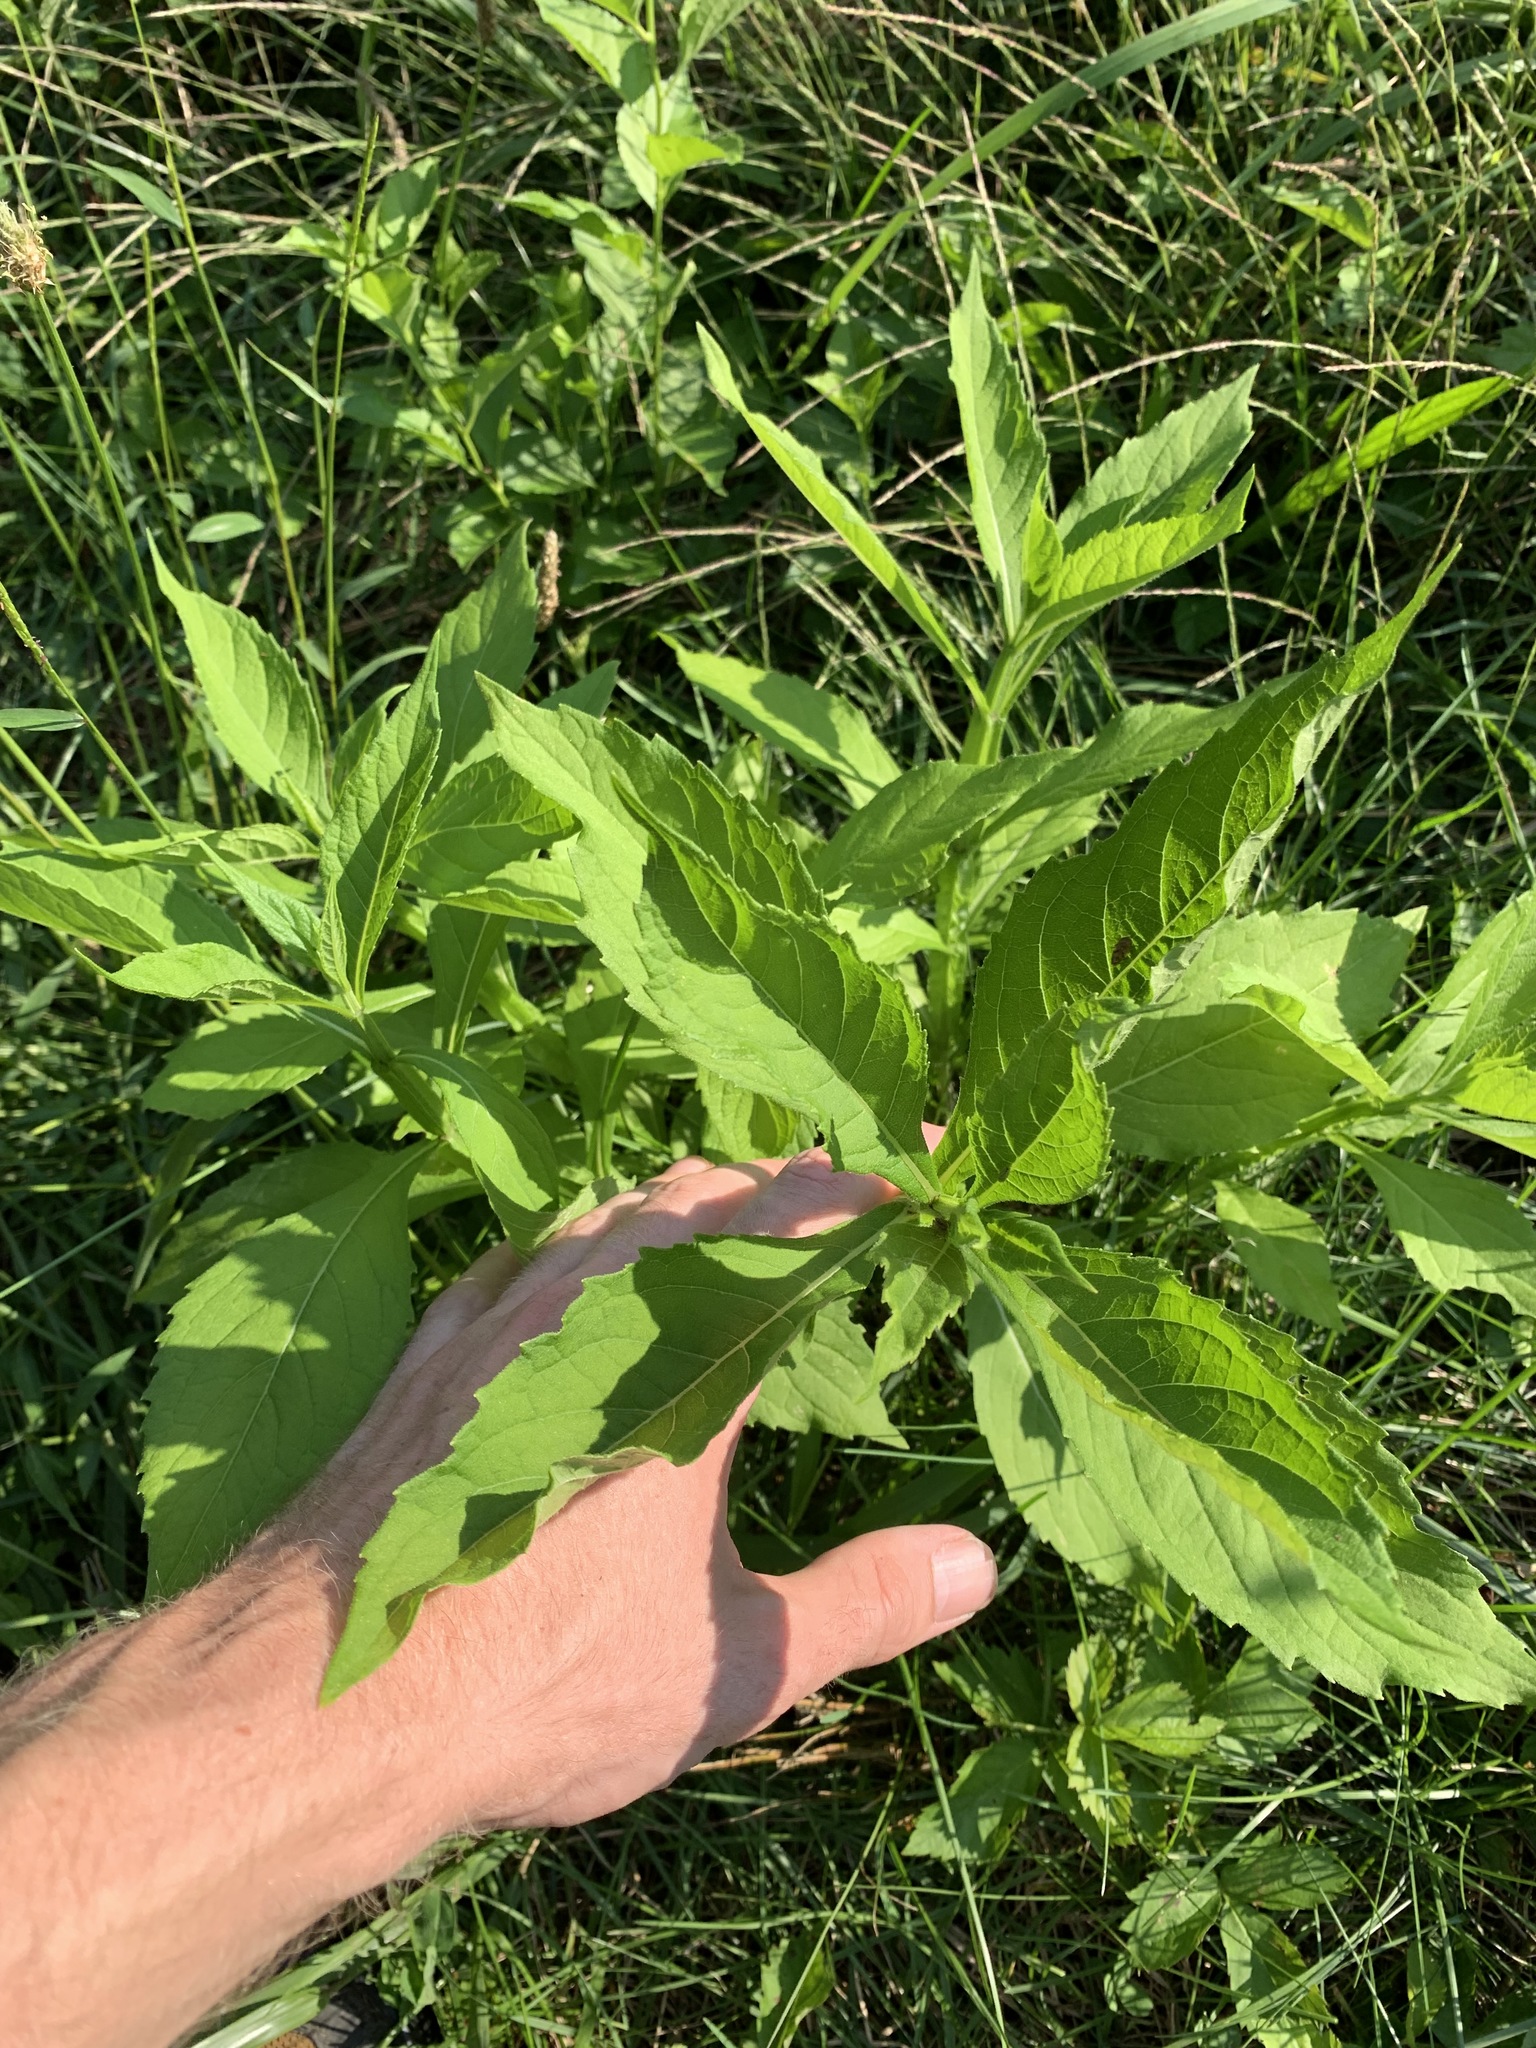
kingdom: Plantae
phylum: Tracheophyta
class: Magnoliopsida
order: Asterales
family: Asteraceae
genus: Verbesina
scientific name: Verbesina alternifolia
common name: Wingstem
